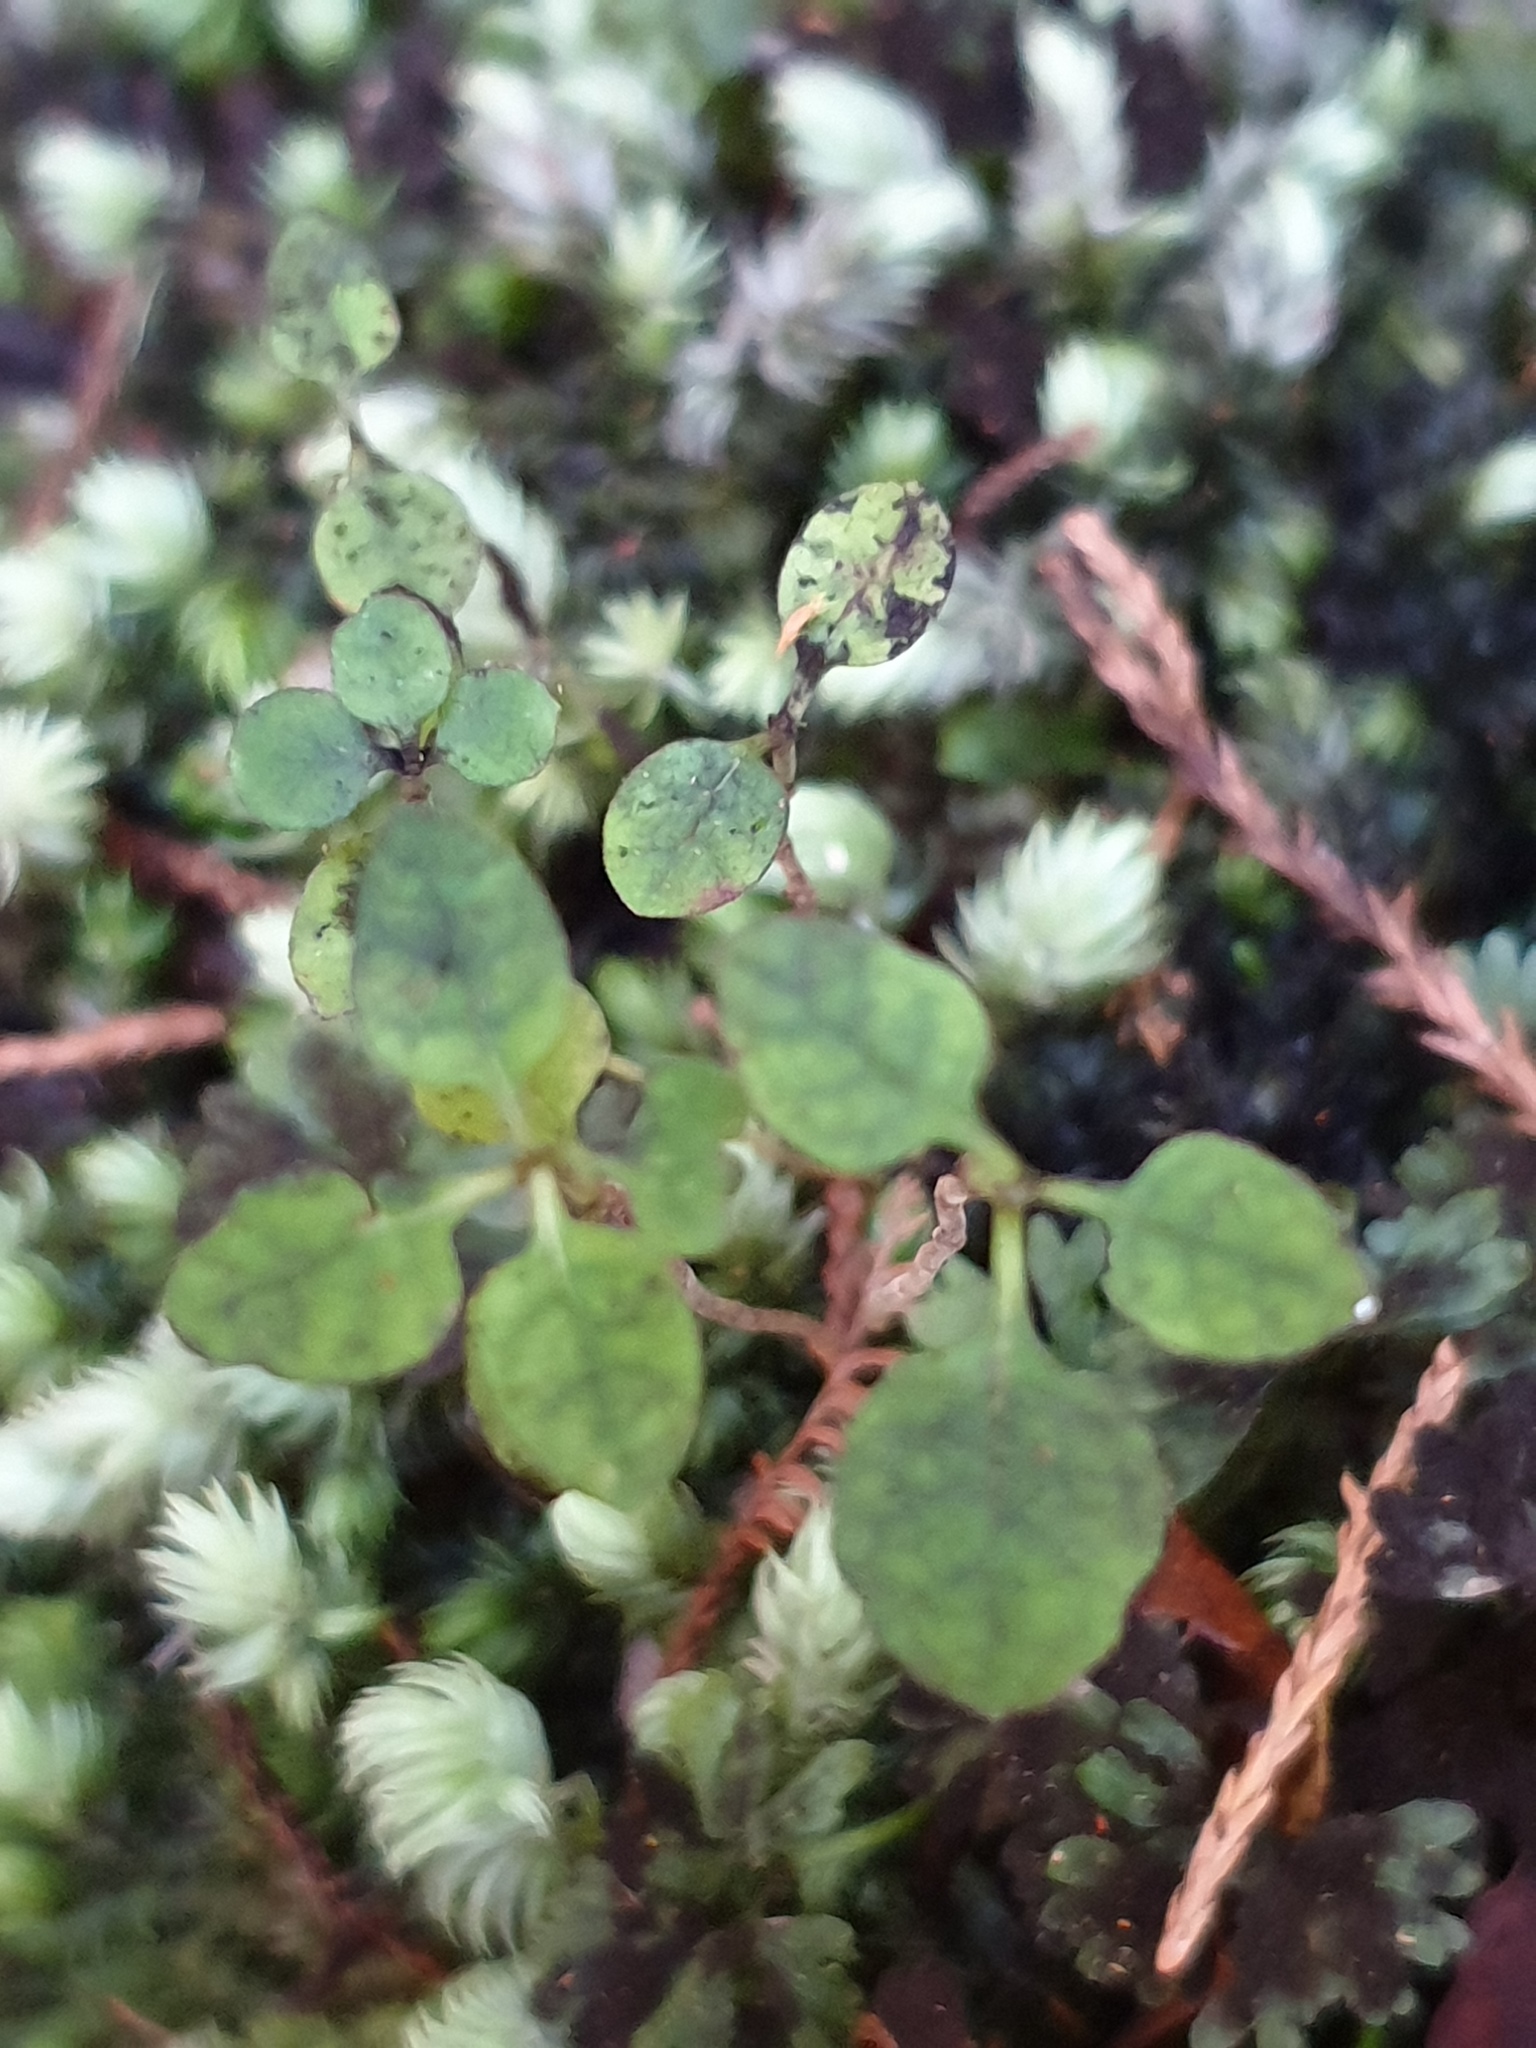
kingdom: Plantae
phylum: Tracheophyta
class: Magnoliopsida
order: Gentianales
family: Rubiaceae
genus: Coprosma
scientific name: Coprosma areolata
